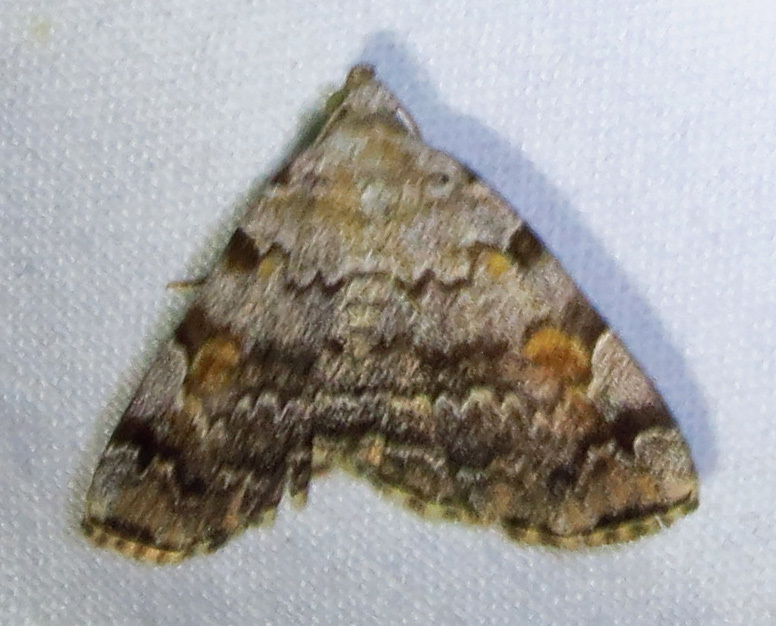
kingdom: Animalia
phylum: Arthropoda
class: Insecta
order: Lepidoptera
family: Erebidae
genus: Idia
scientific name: Idia americalis
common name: American idia moth
